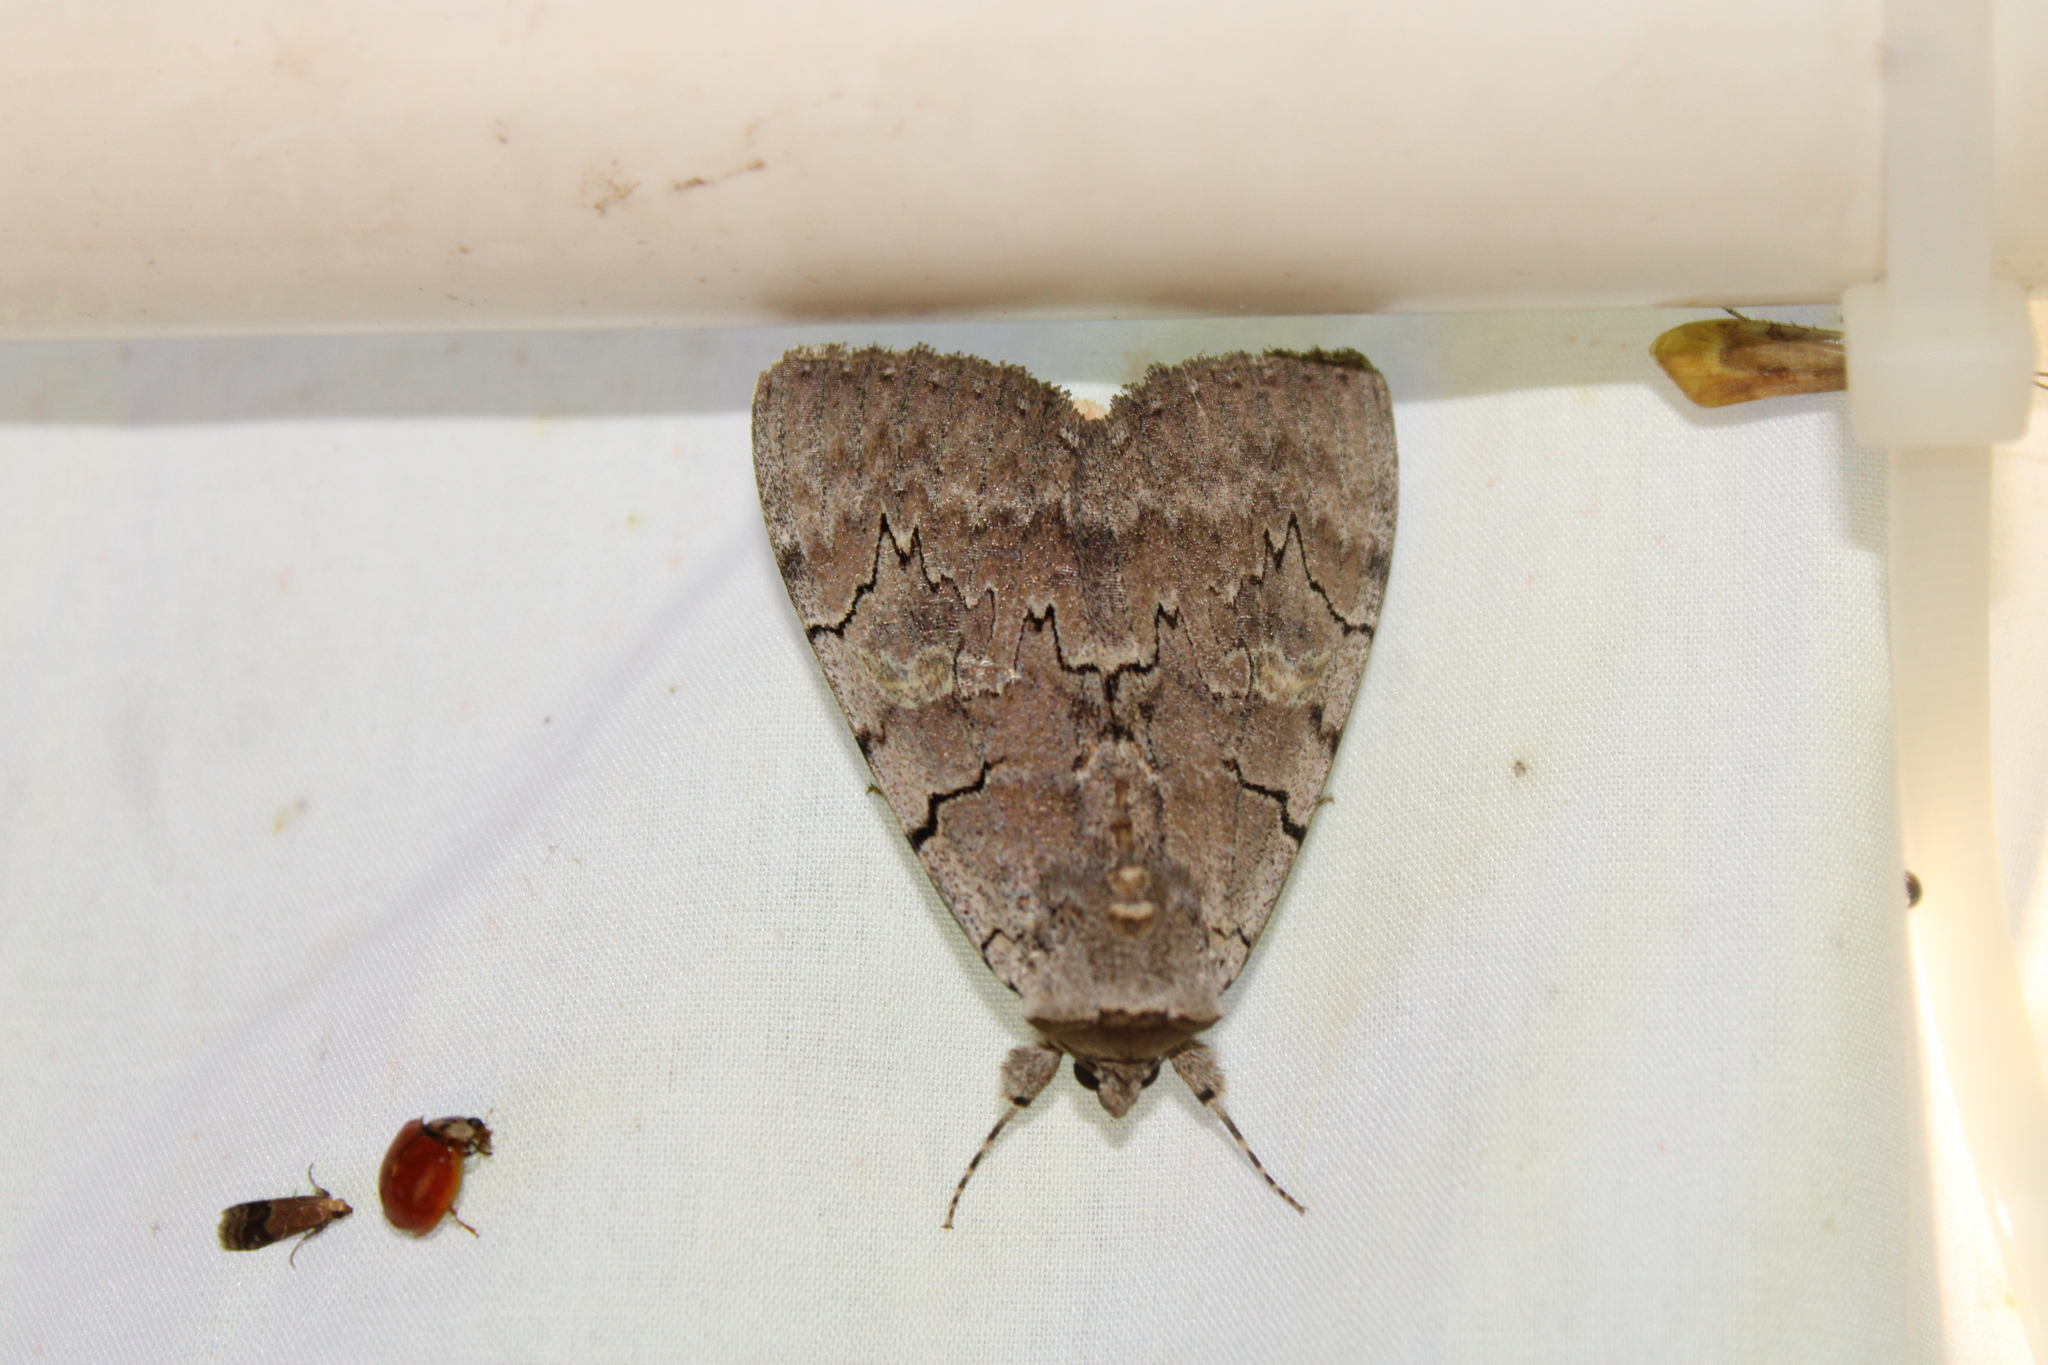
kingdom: Animalia
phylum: Arthropoda
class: Insecta
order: Lepidoptera
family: Erebidae
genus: Catocala
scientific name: Catocala concumbens
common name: Pink underwing
